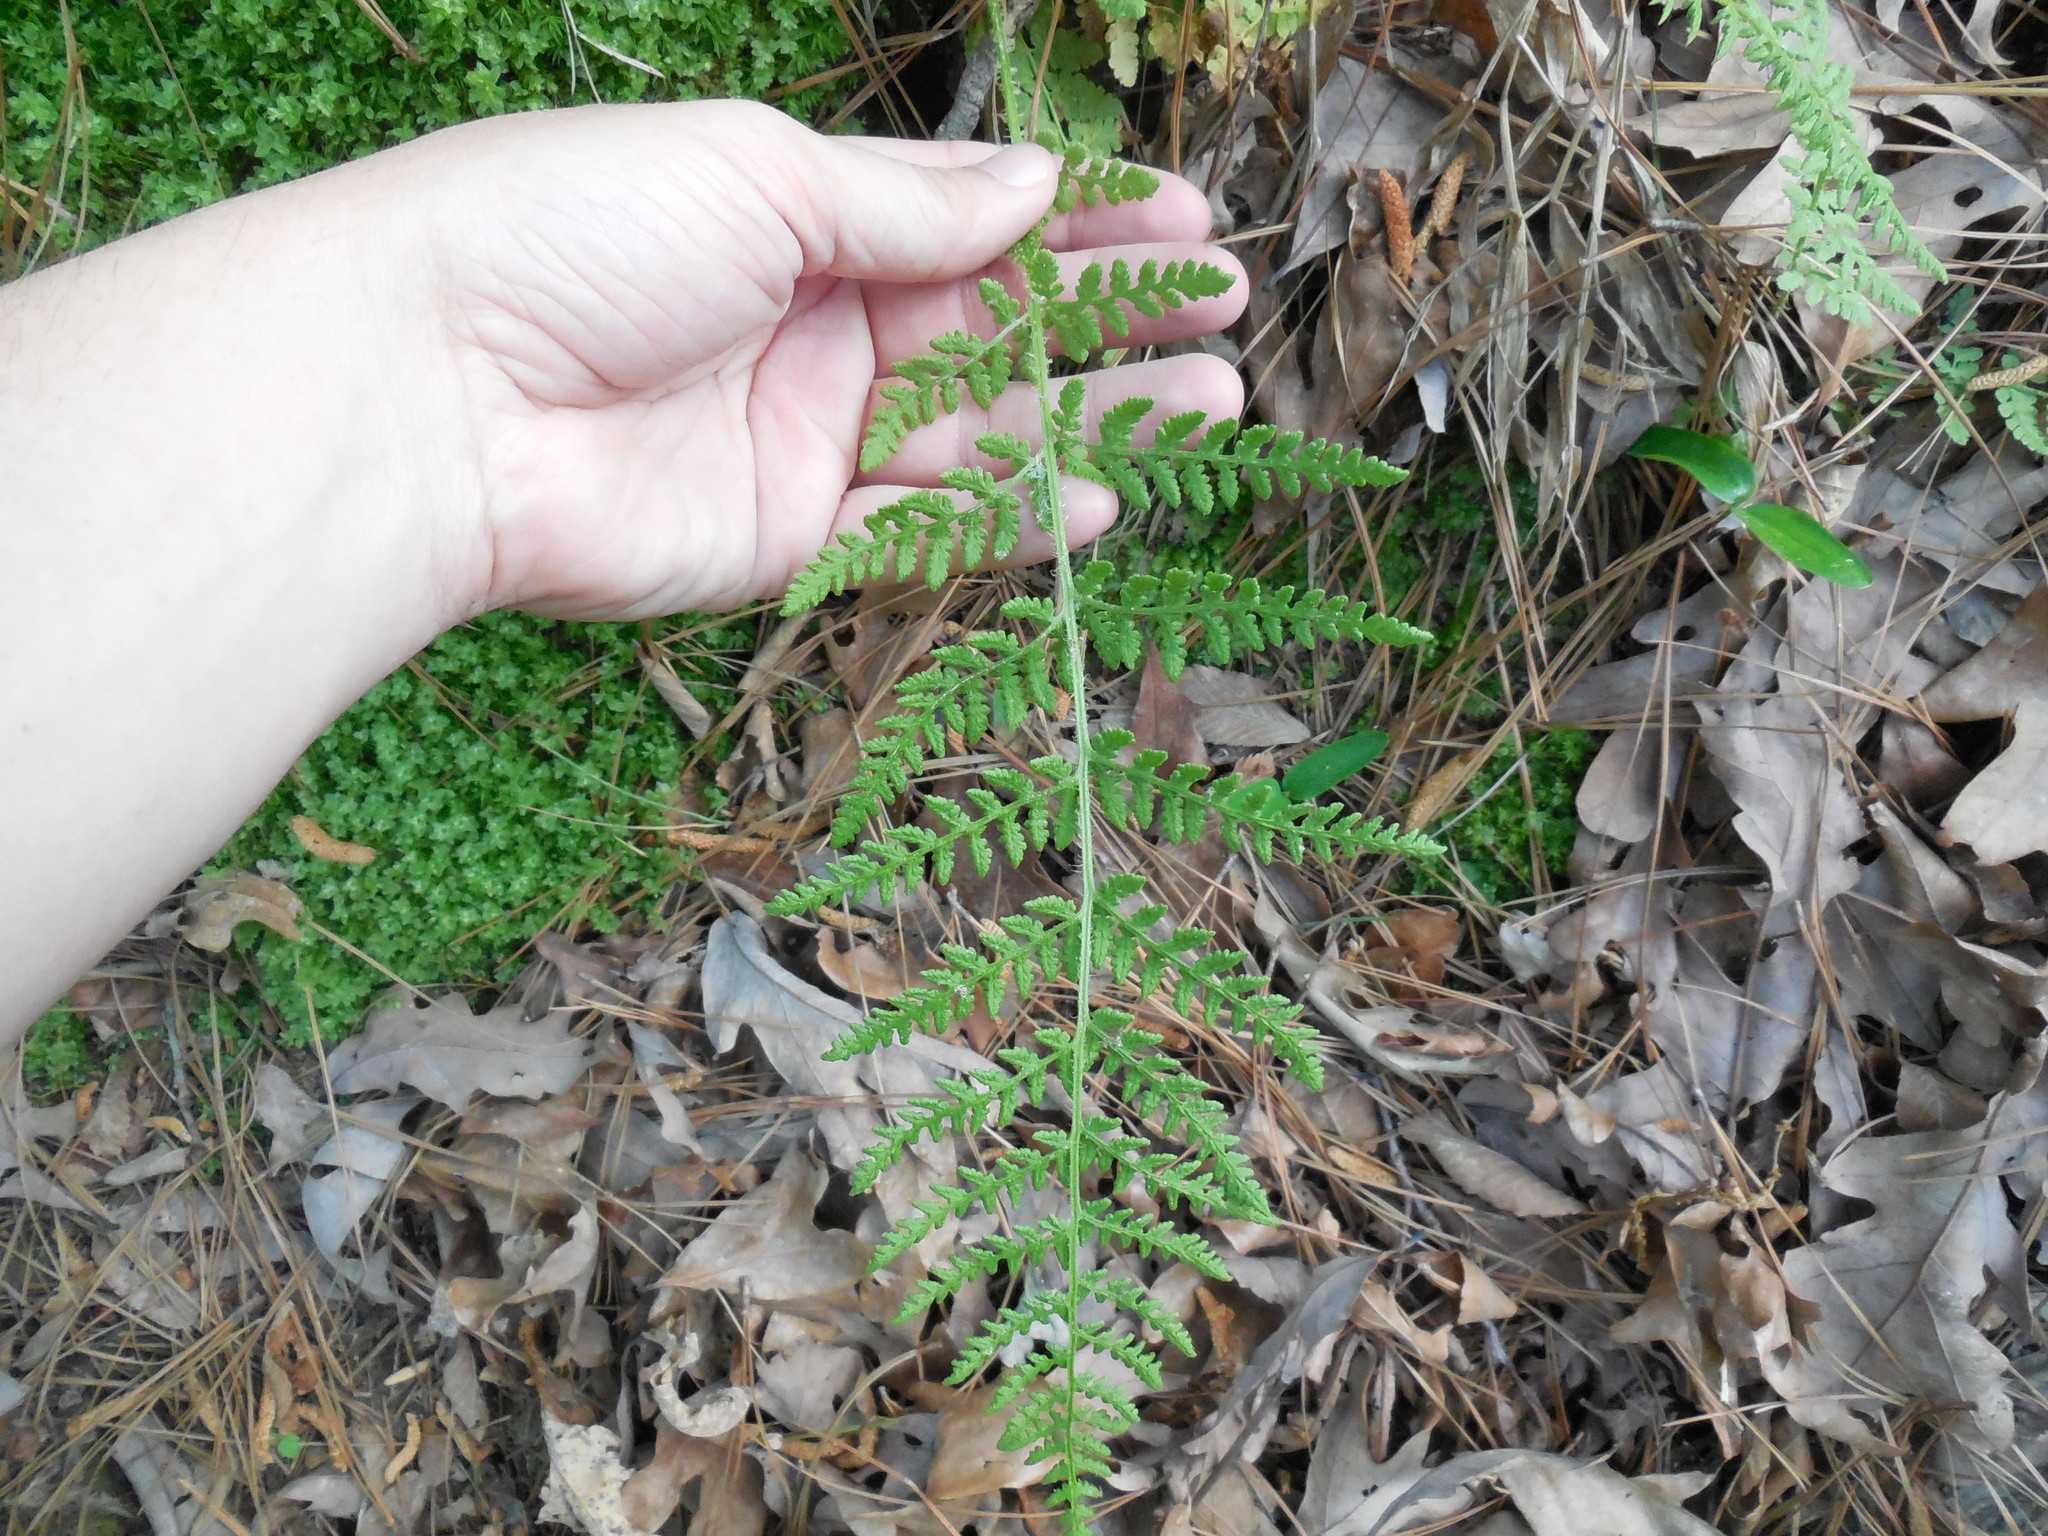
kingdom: Plantae
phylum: Tracheophyta
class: Polypodiopsida
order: Polypodiales
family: Woodsiaceae
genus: Physematium
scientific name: Physematium obtusum
